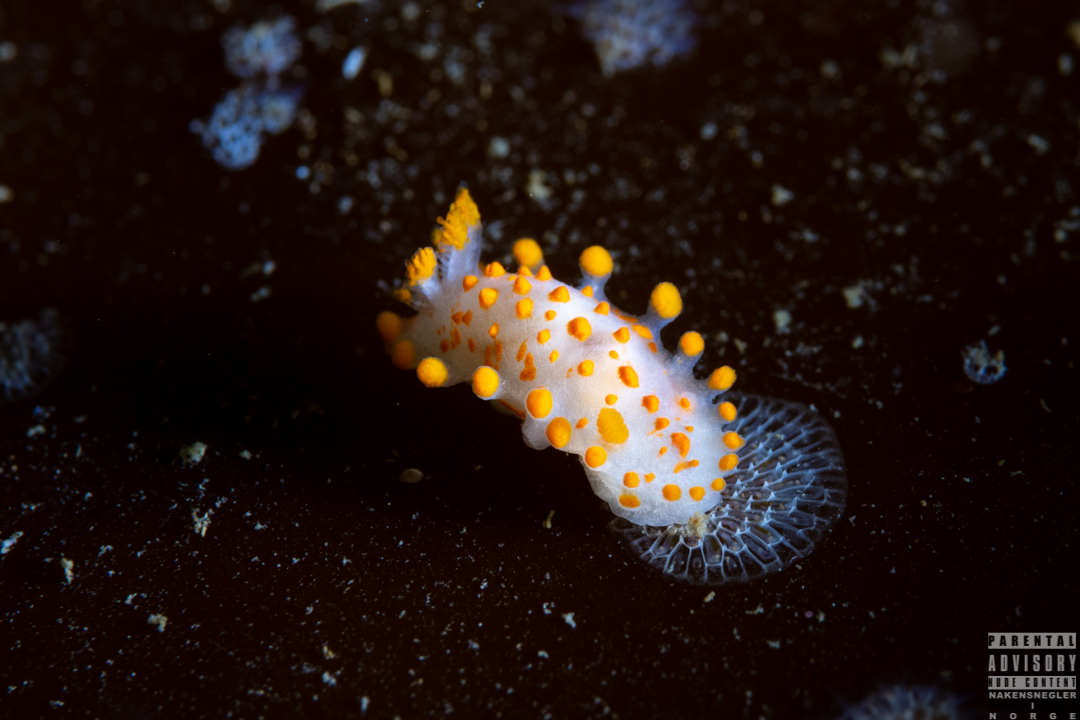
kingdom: Animalia
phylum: Mollusca
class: Gastropoda
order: Nudibranchia
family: Polyceridae
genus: Limacia
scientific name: Limacia clavigera
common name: Orange-clubbed sea slug
